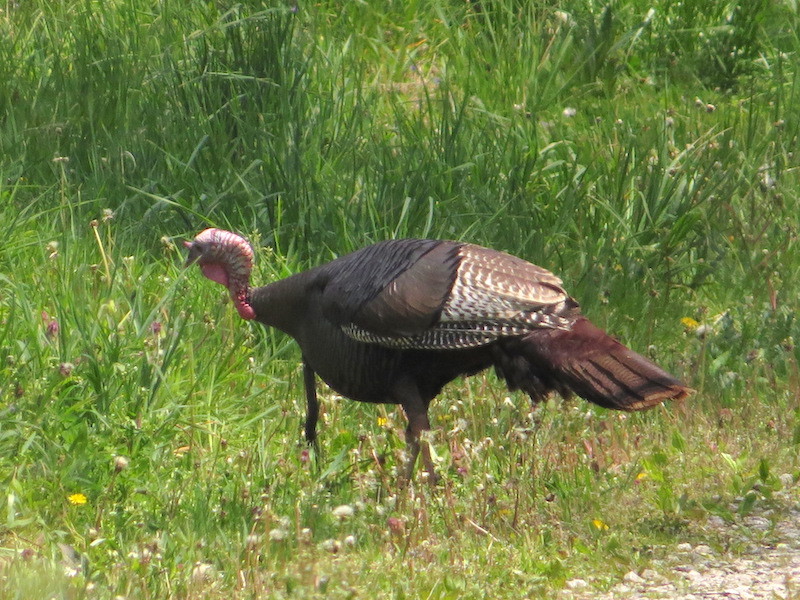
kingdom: Animalia
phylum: Chordata
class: Aves
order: Galliformes
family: Phasianidae
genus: Meleagris
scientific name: Meleagris gallopavo
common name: Wild turkey
